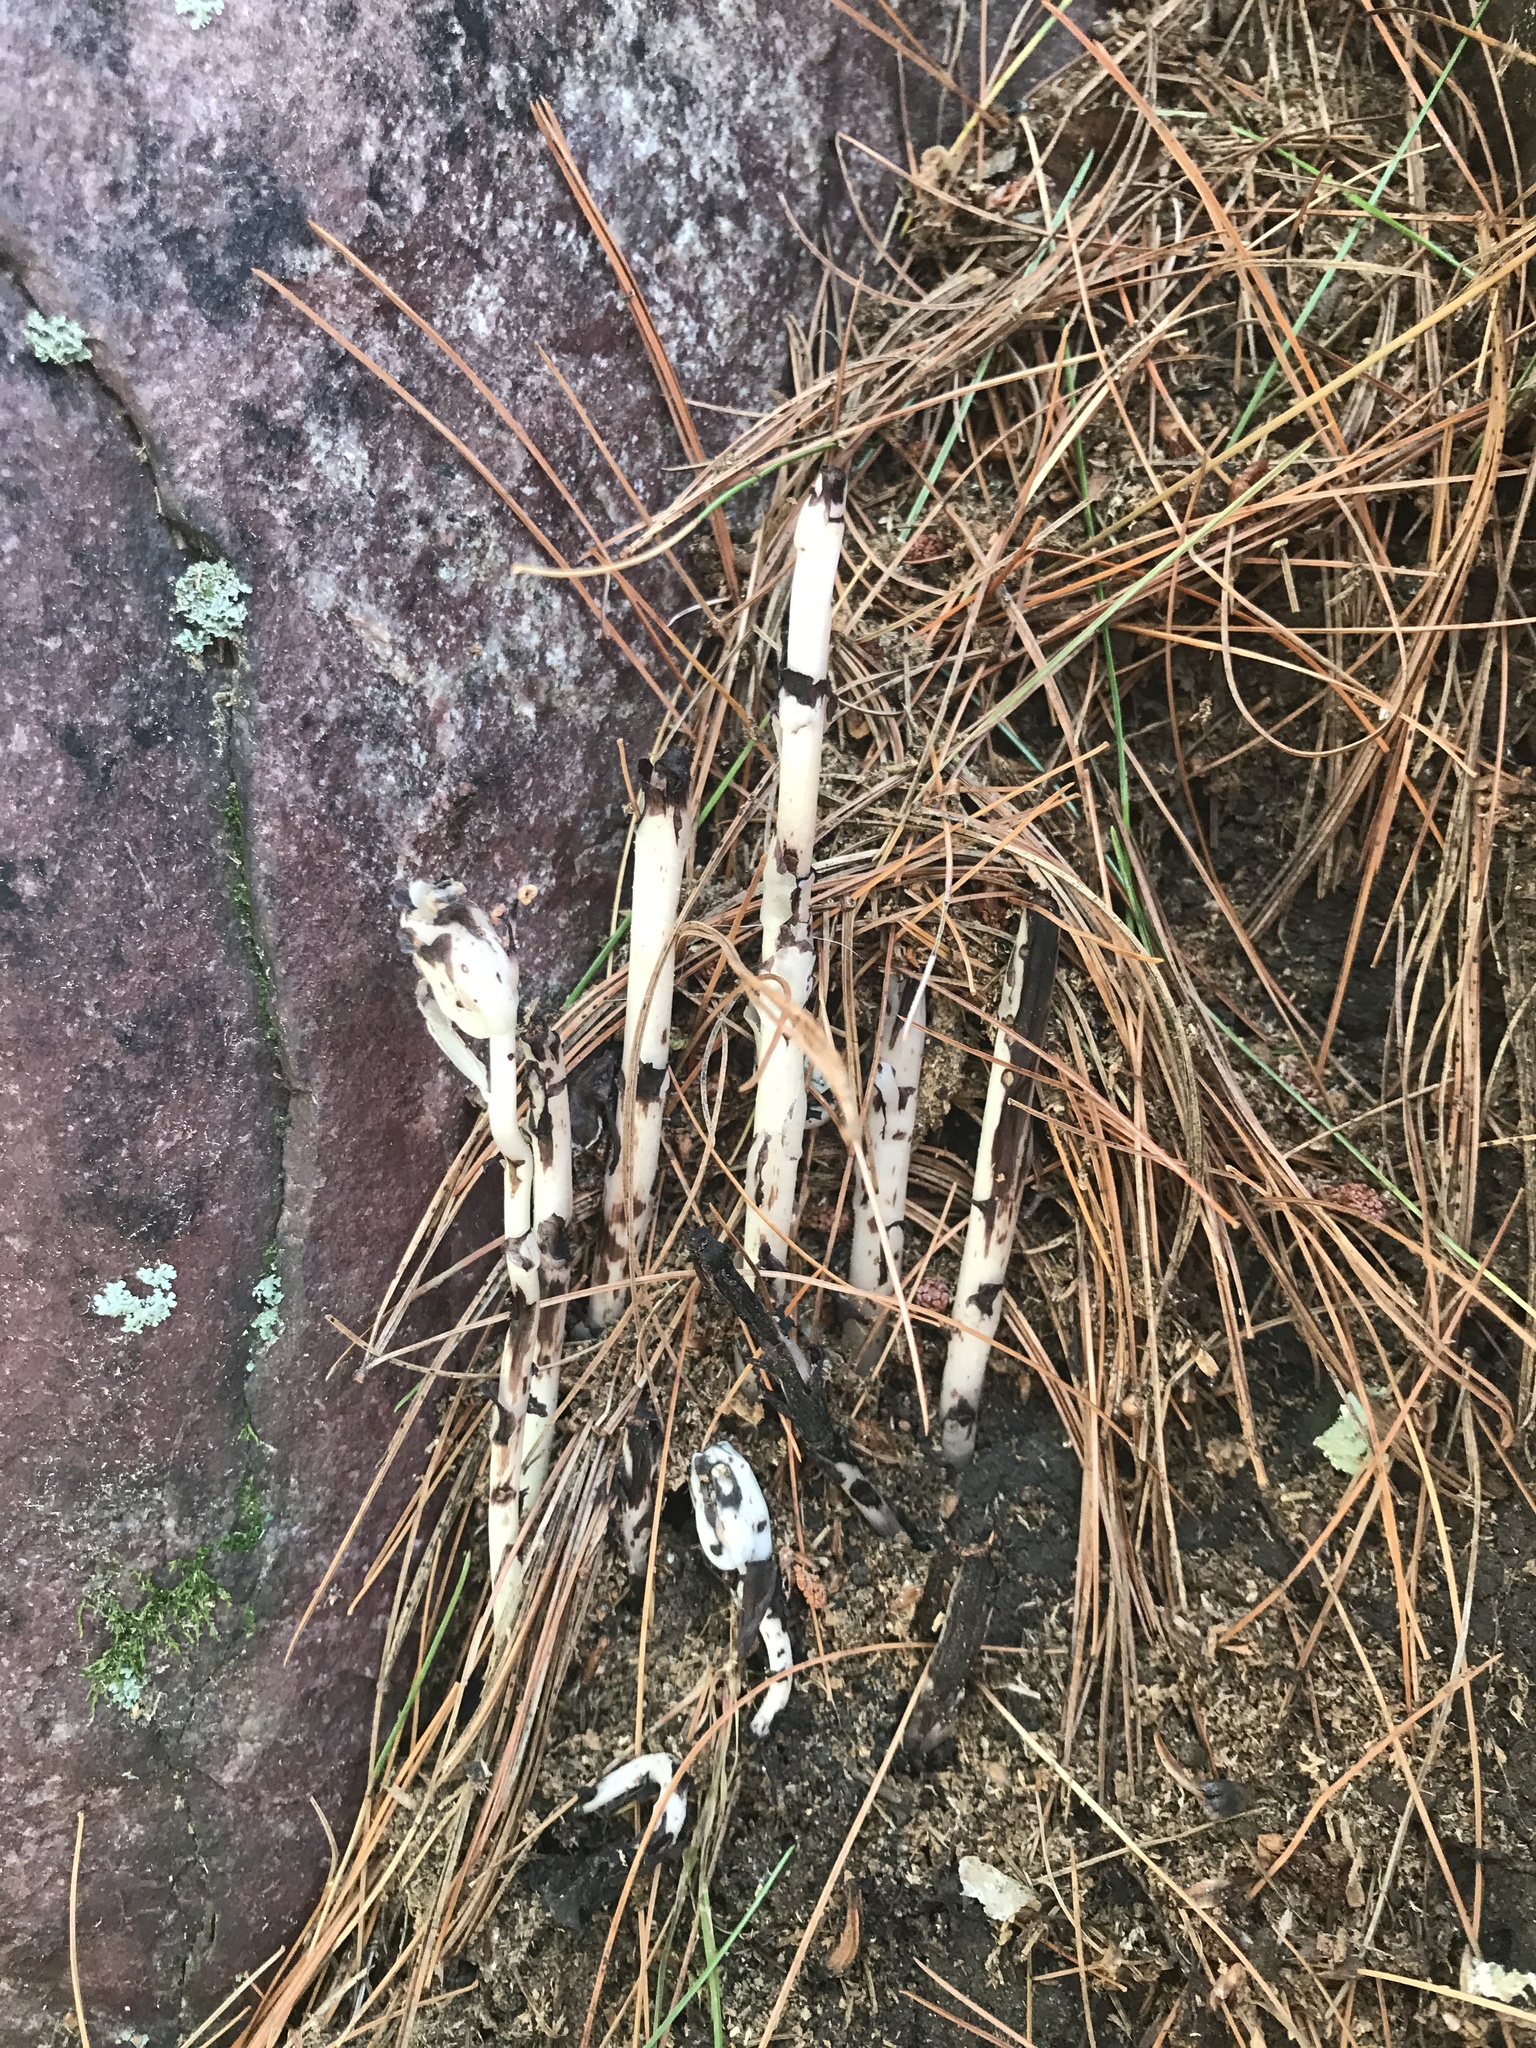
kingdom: Plantae
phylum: Tracheophyta
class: Magnoliopsida
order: Ericales
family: Ericaceae
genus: Monotropa
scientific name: Monotropa uniflora
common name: Convulsion root
